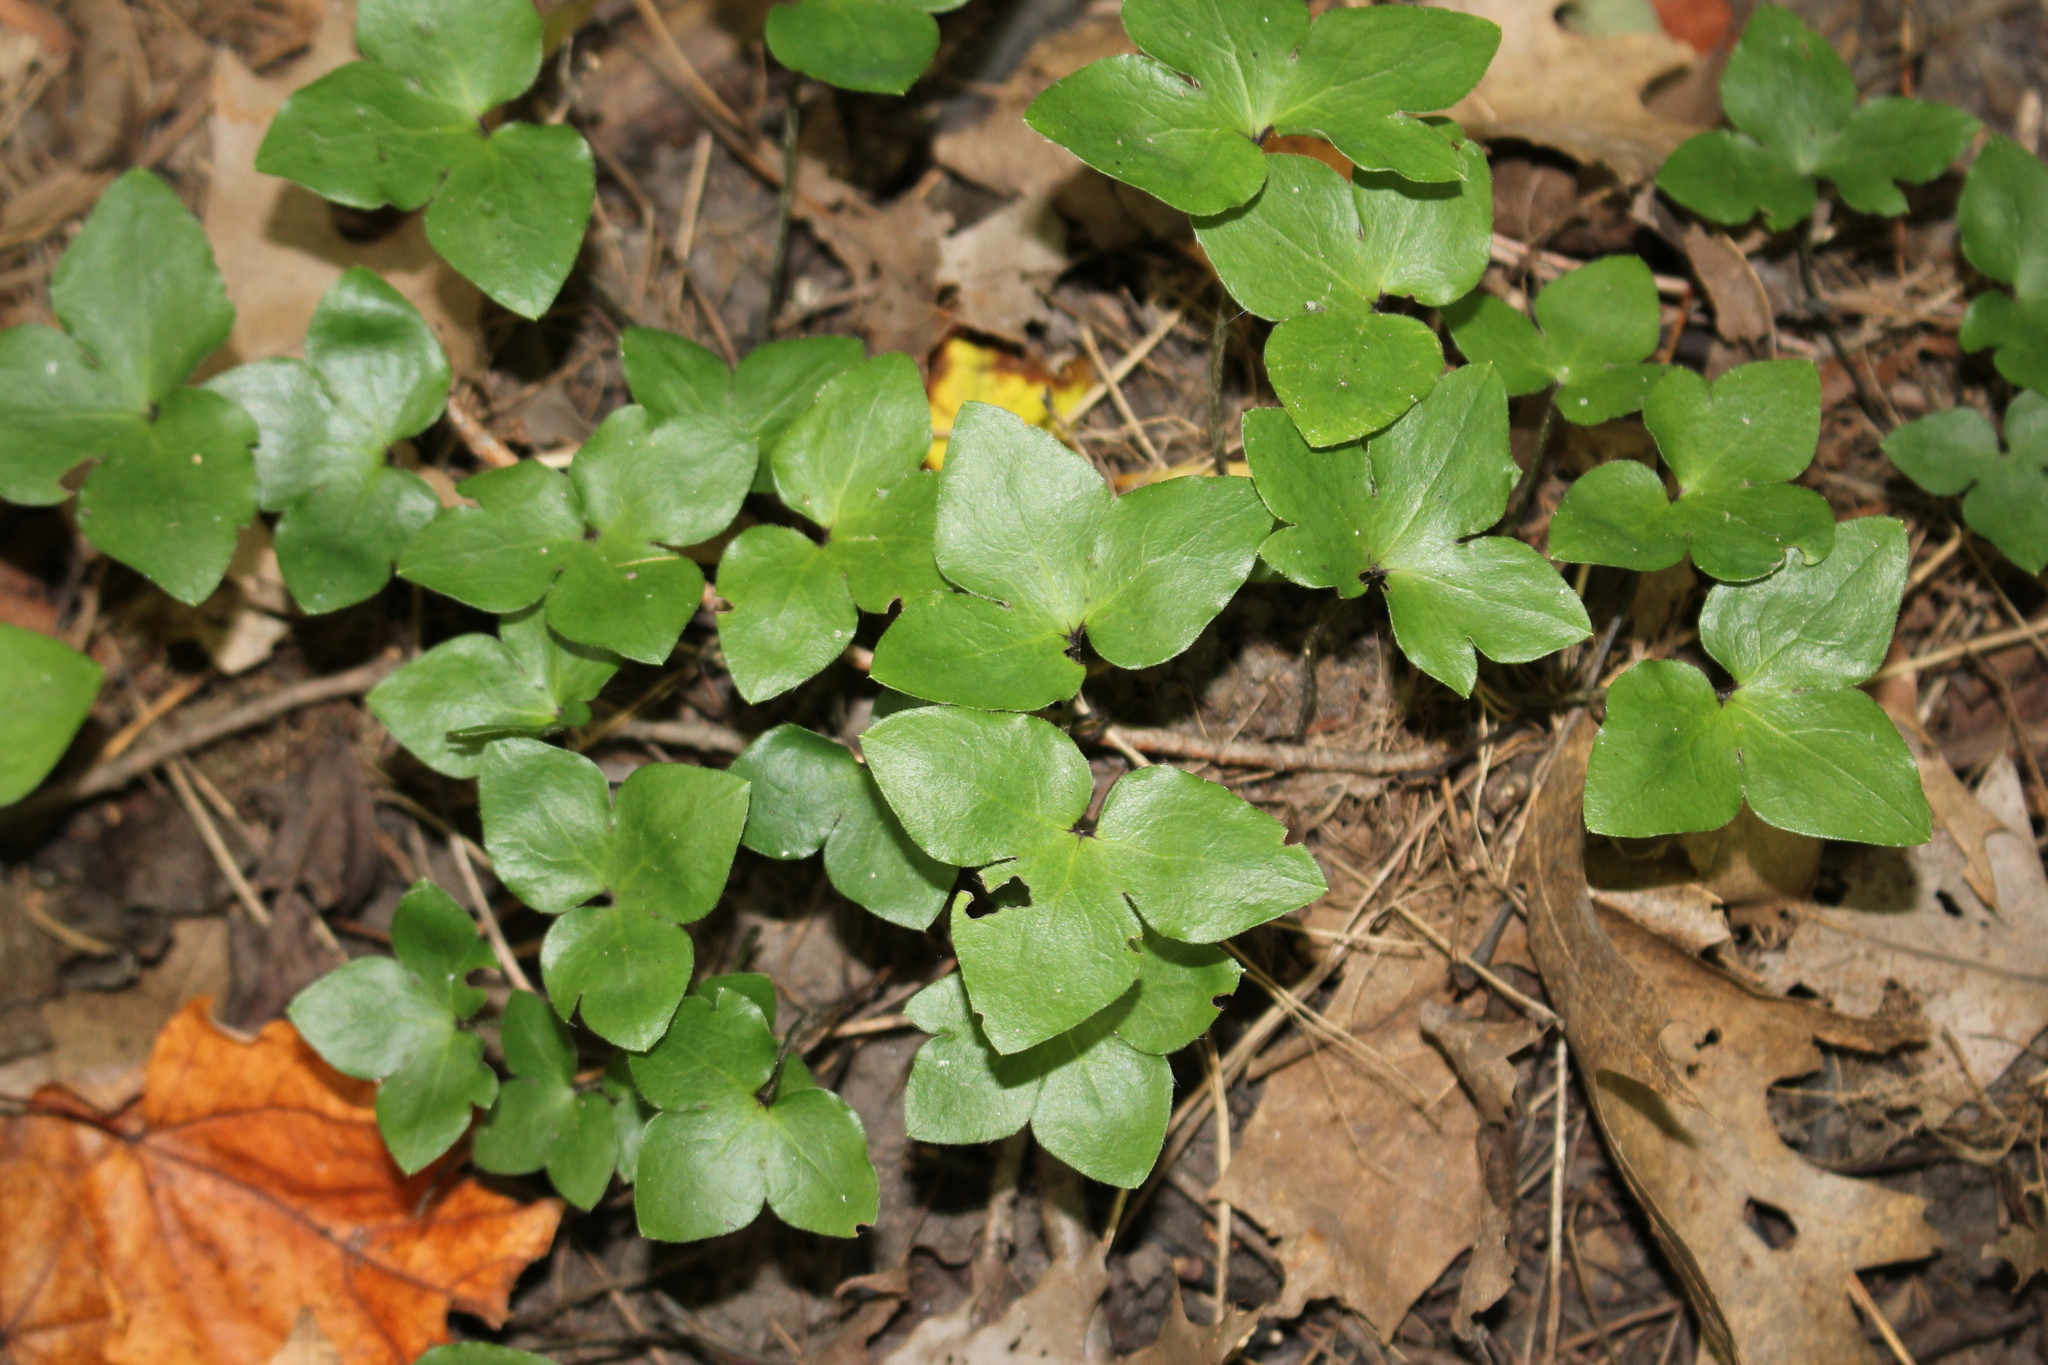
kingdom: Plantae
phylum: Tracheophyta
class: Magnoliopsida
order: Ranunculales
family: Ranunculaceae
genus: Hepatica
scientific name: Hepatica acutiloba
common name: Sharp-lobed hepatica
